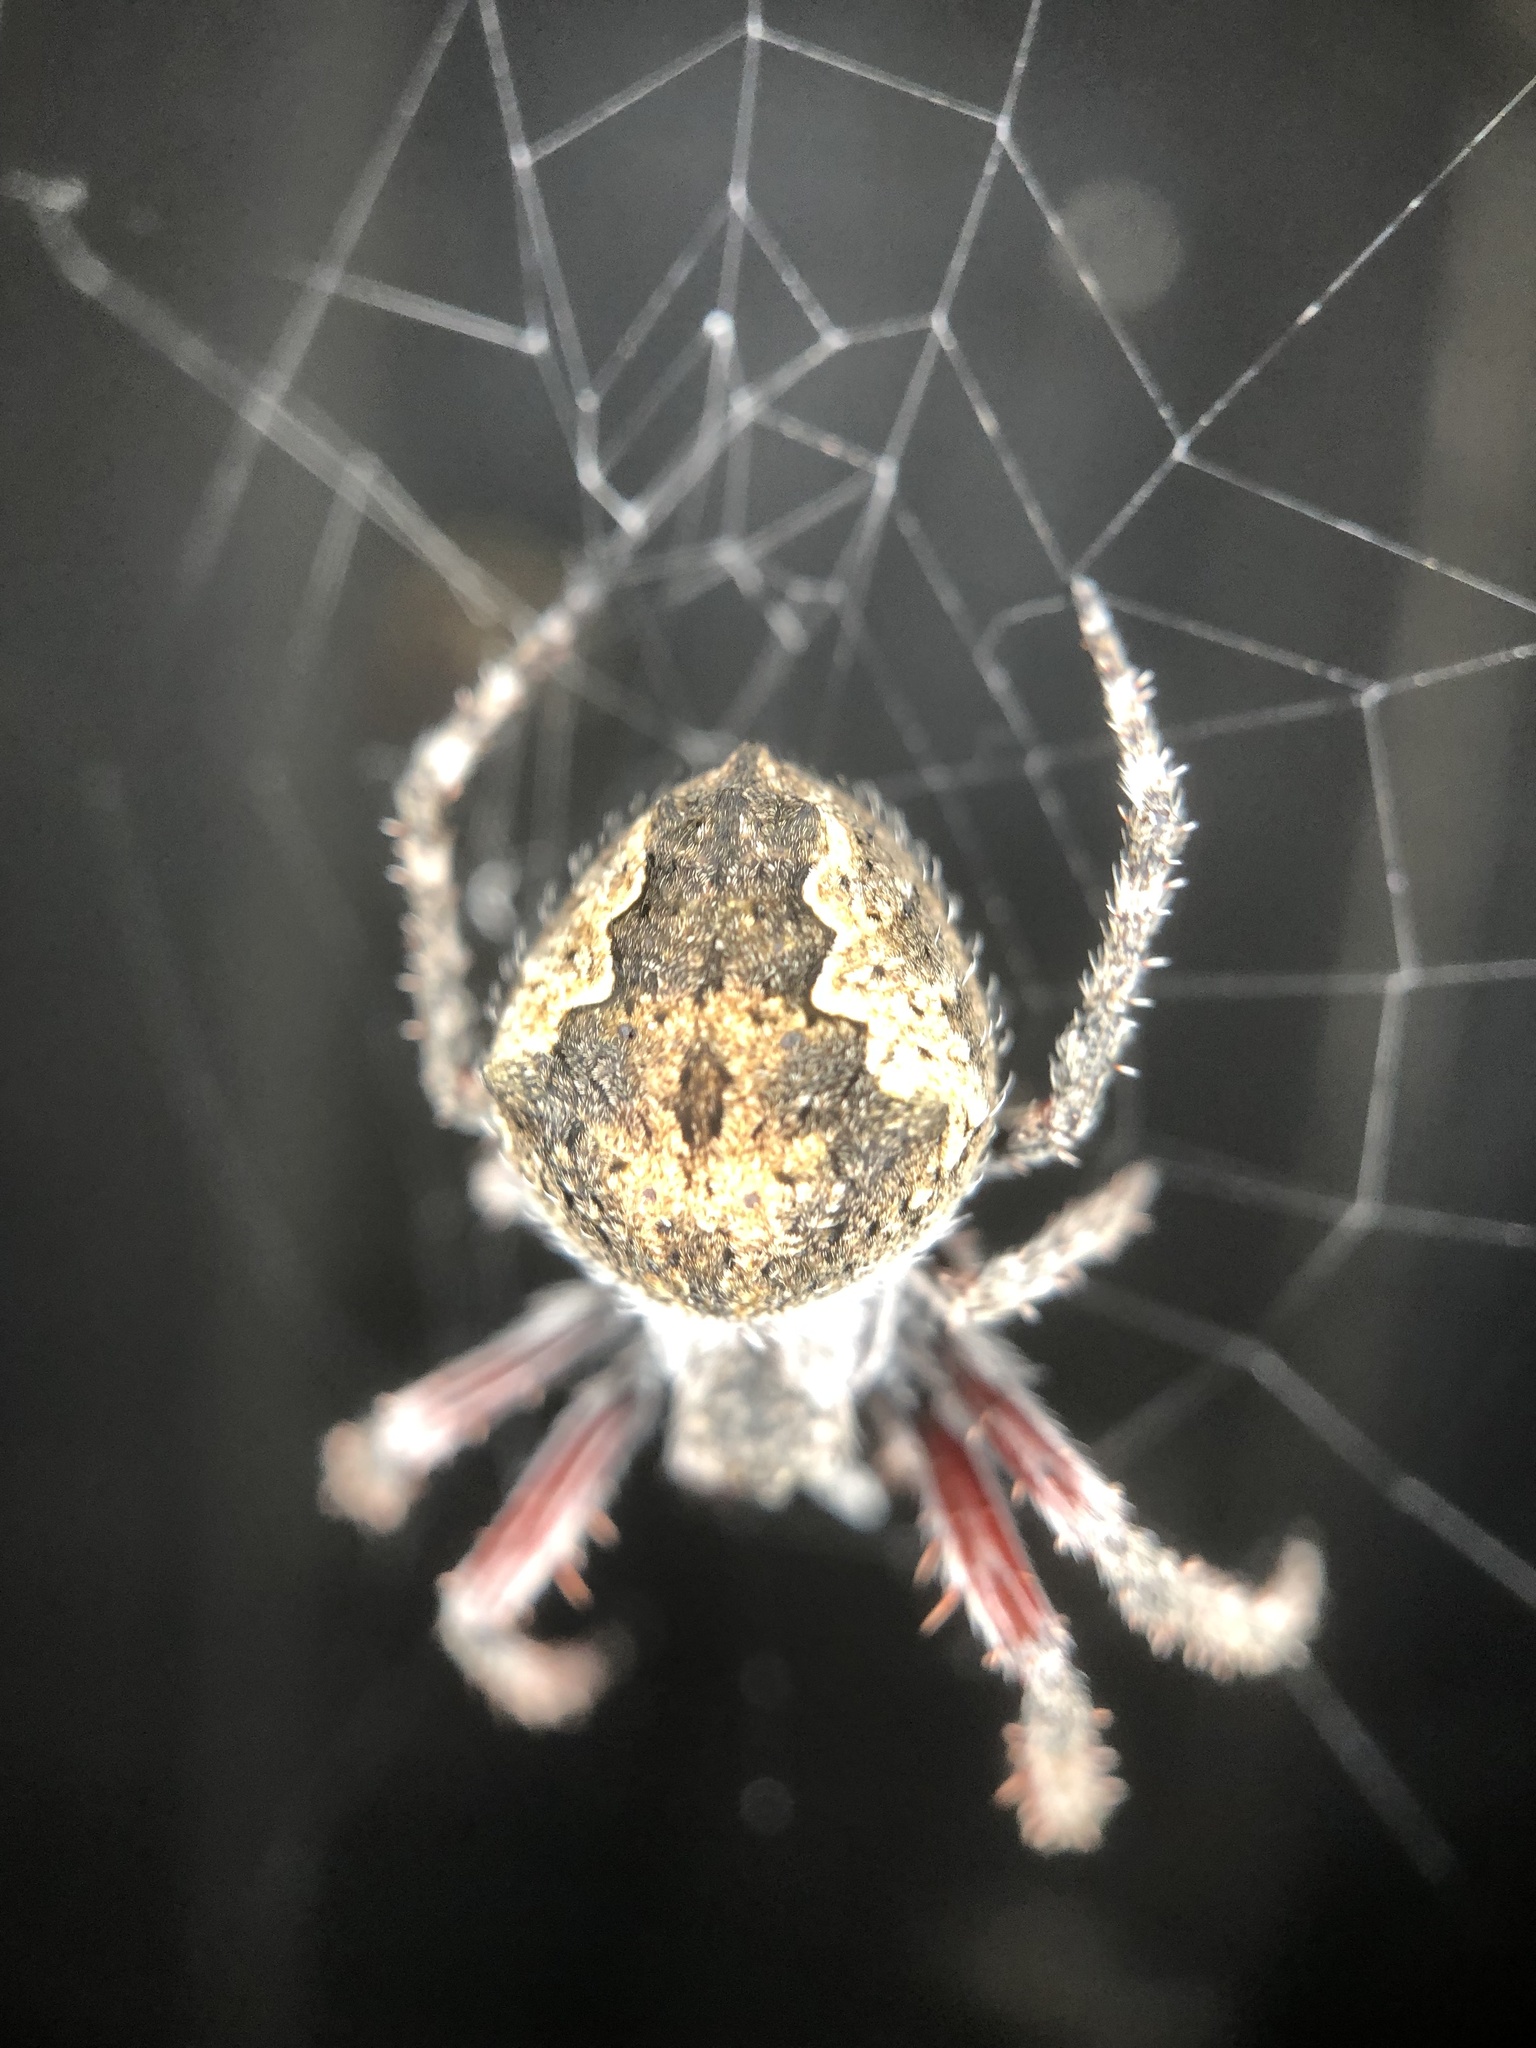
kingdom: Animalia
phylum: Arthropoda
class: Arachnida
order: Araneae
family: Araneidae
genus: Eriophora
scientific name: Eriophora pustulosa
